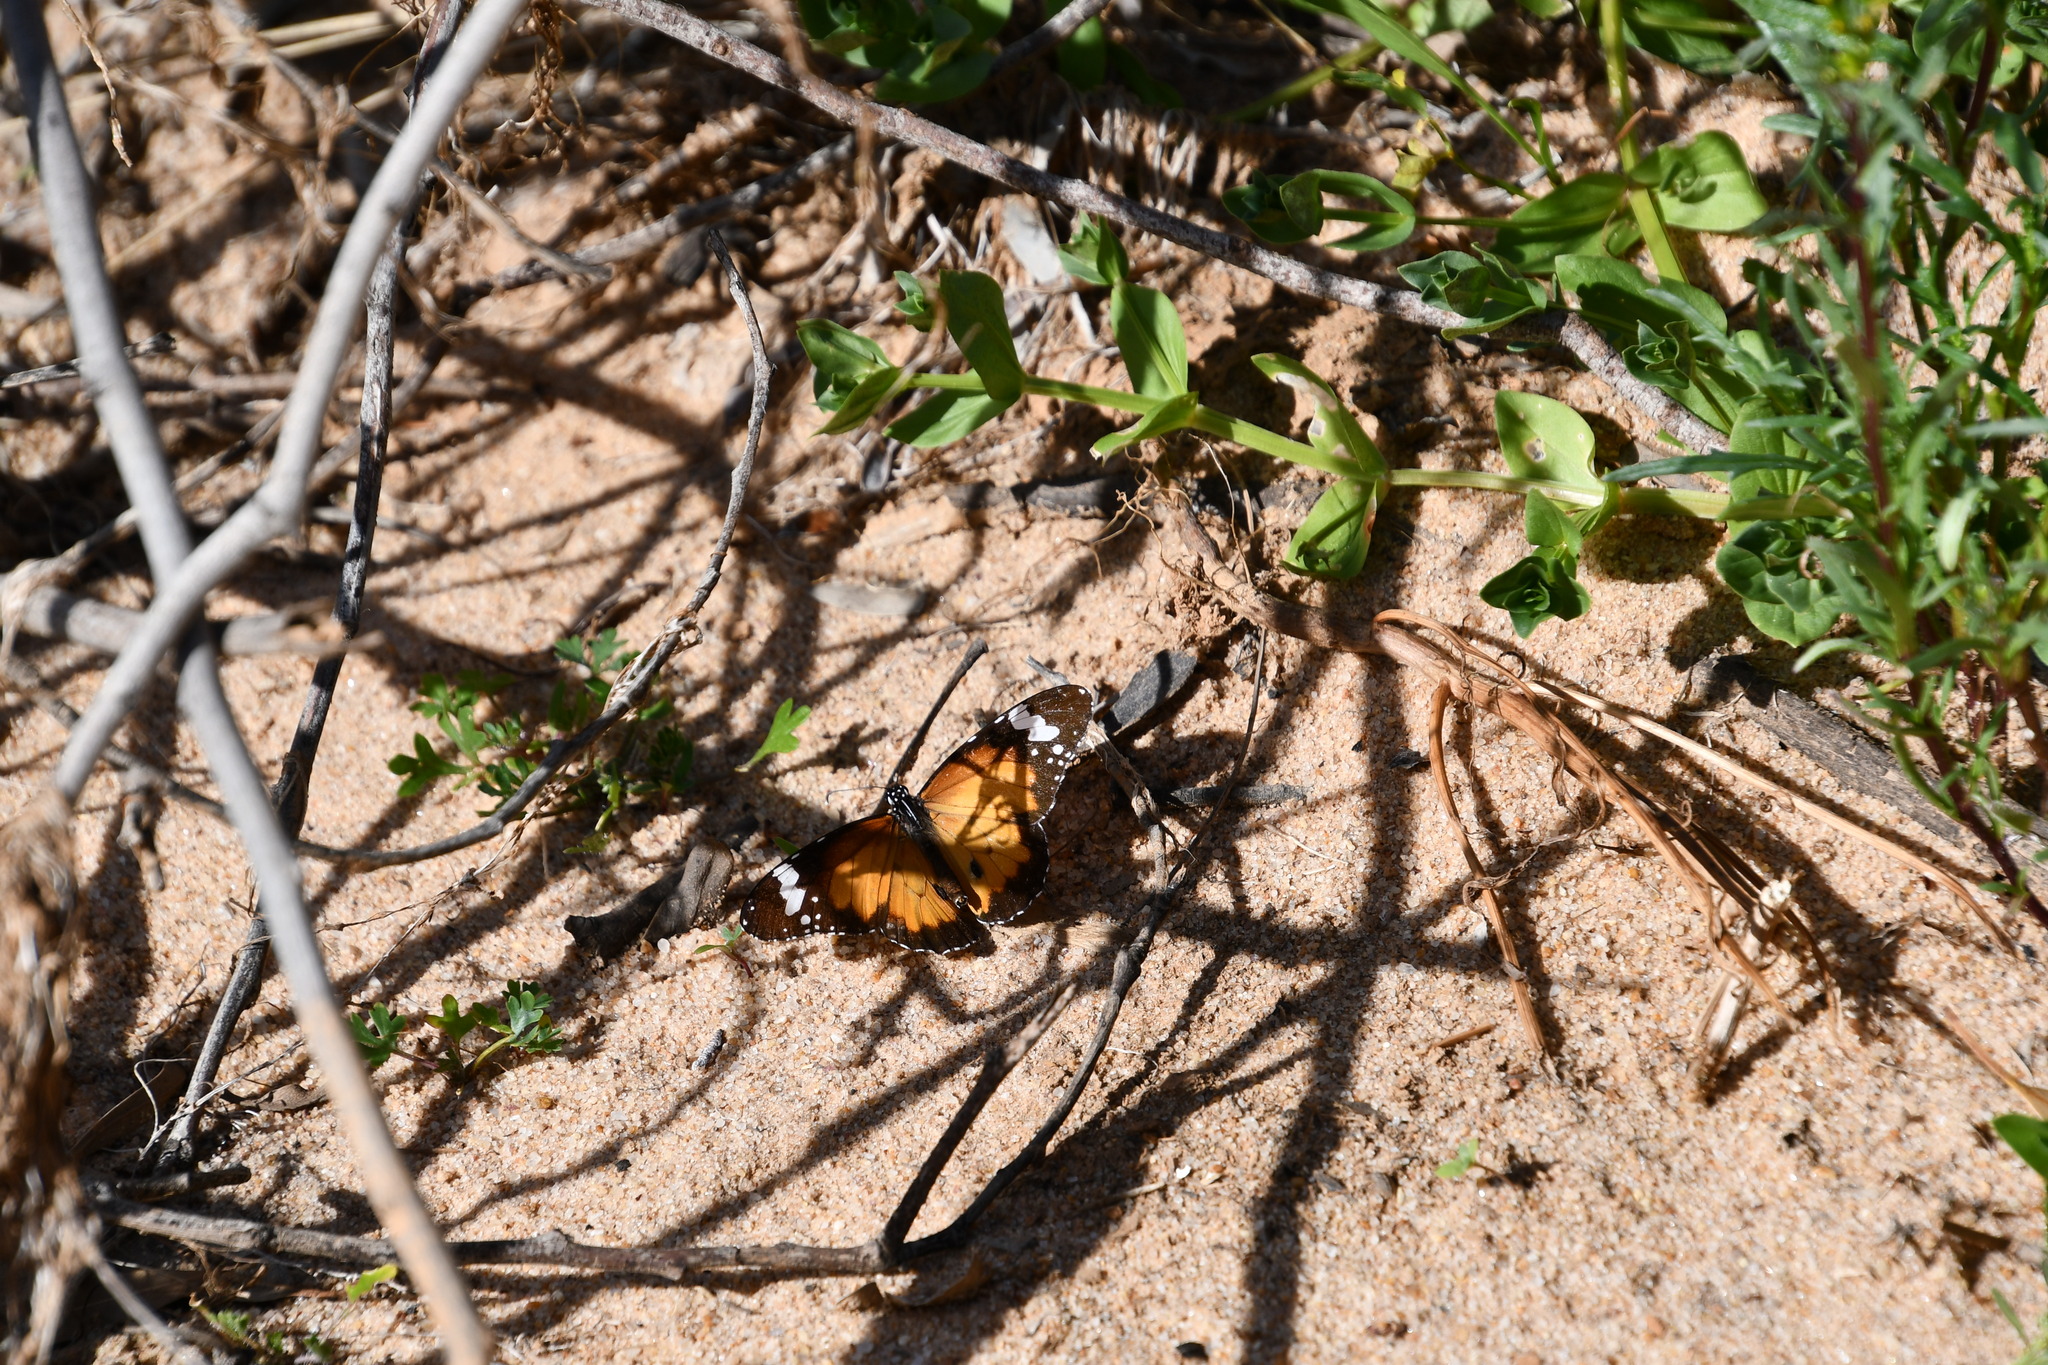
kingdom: Animalia
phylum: Arthropoda
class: Insecta
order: Lepidoptera
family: Nymphalidae
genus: Danaus
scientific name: Danaus chrysippus
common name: Plain tiger
